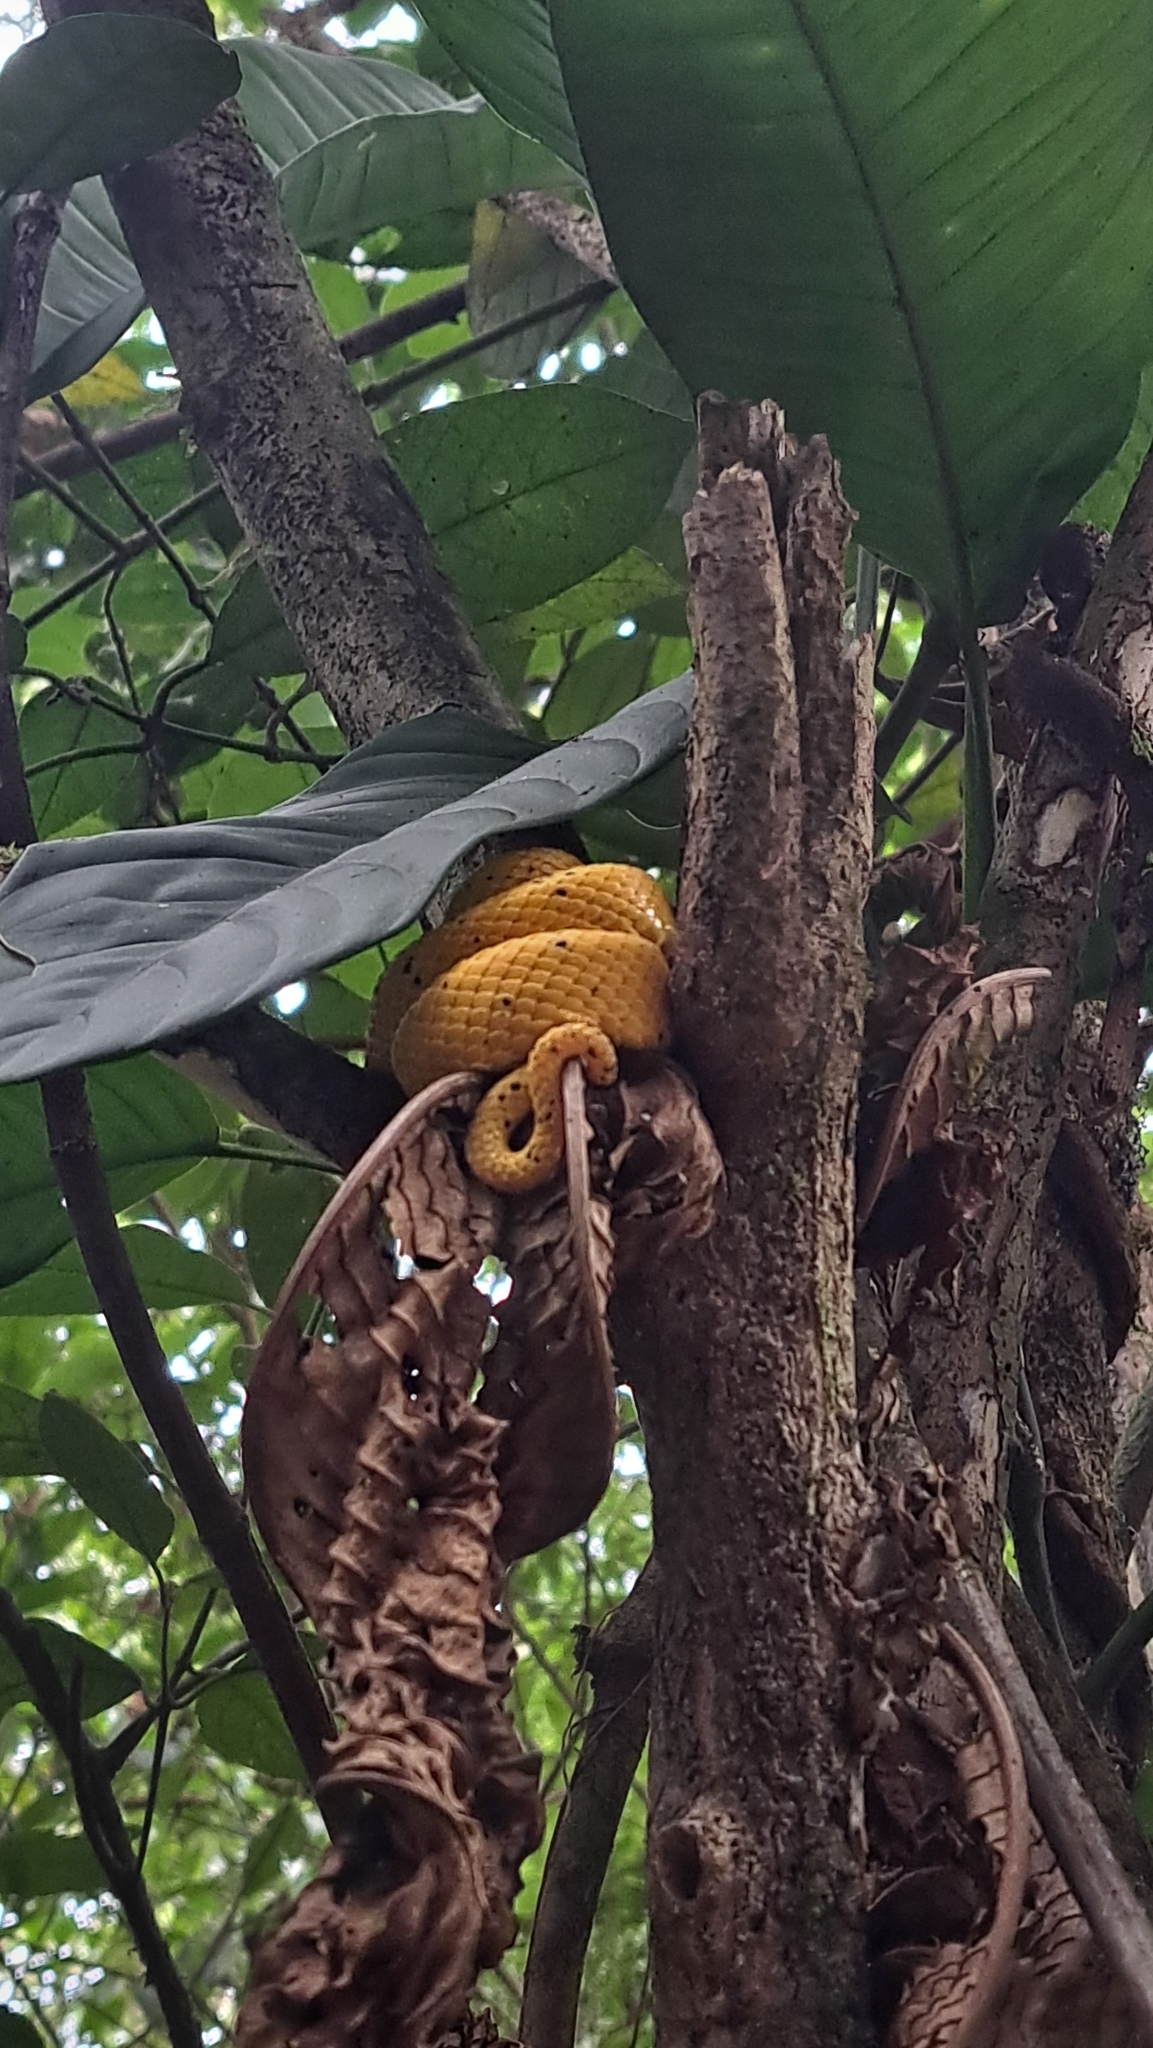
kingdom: Animalia
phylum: Chordata
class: Squamata
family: Viperidae
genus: Bothriechis
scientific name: Bothriechis schlegelii
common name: Eyelash viper
